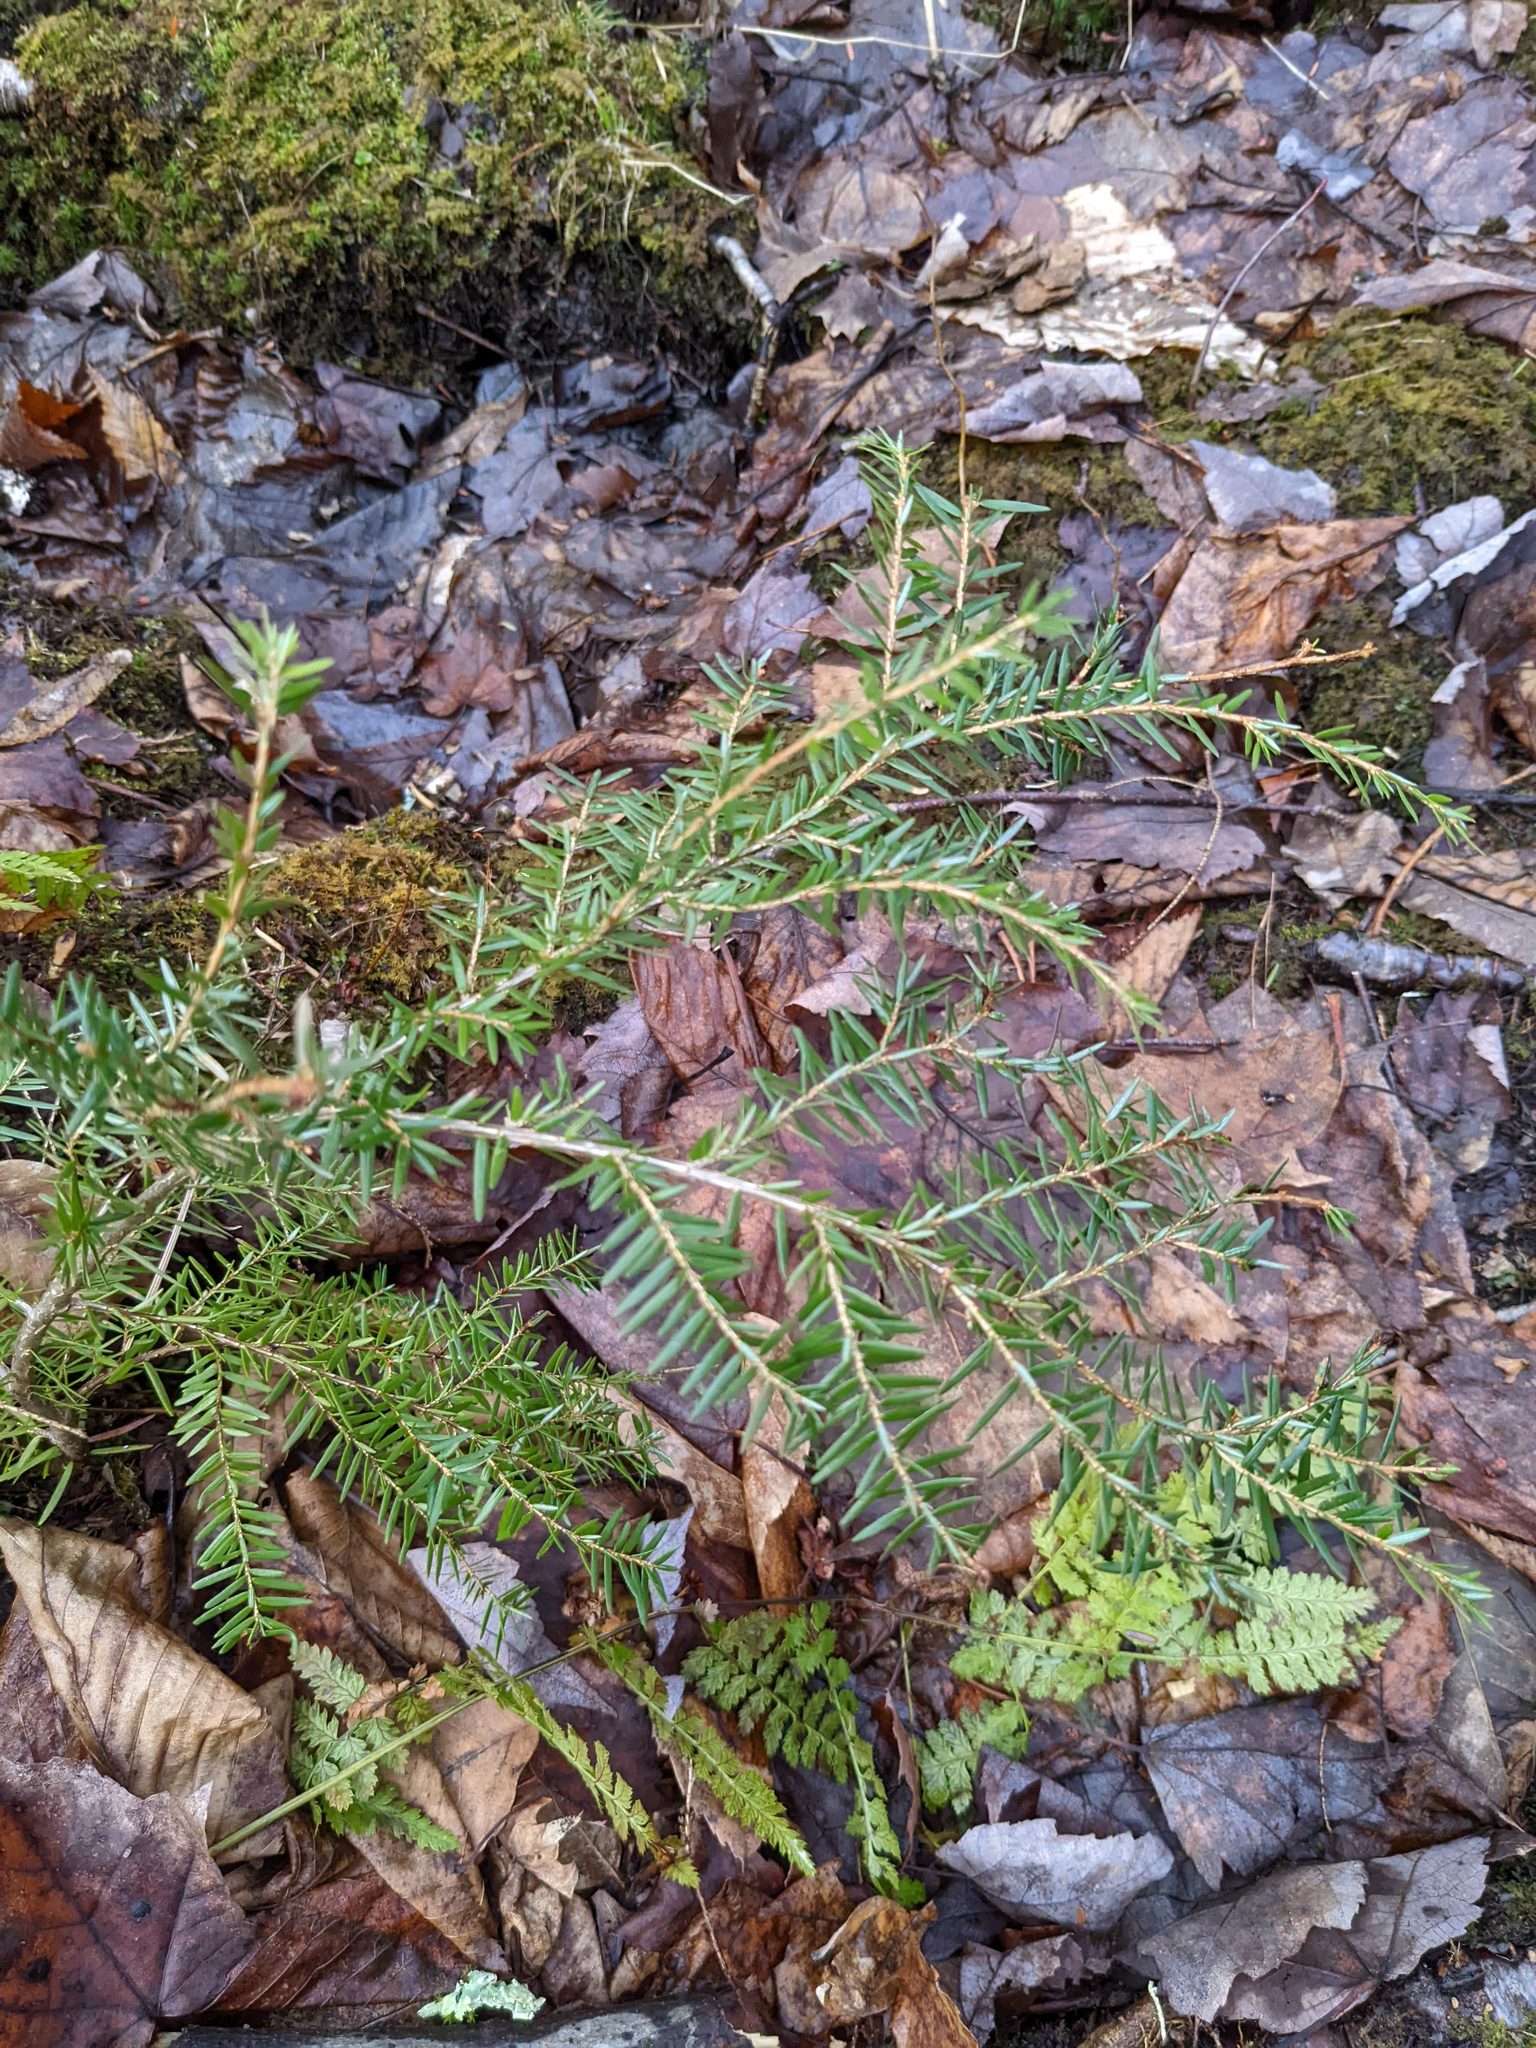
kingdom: Plantae
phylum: Tracheophyta
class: Pinopsida
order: Pinales
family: Pinaceae
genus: Tsuga
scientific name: Tsuga canadensis
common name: Eastern hemlock
